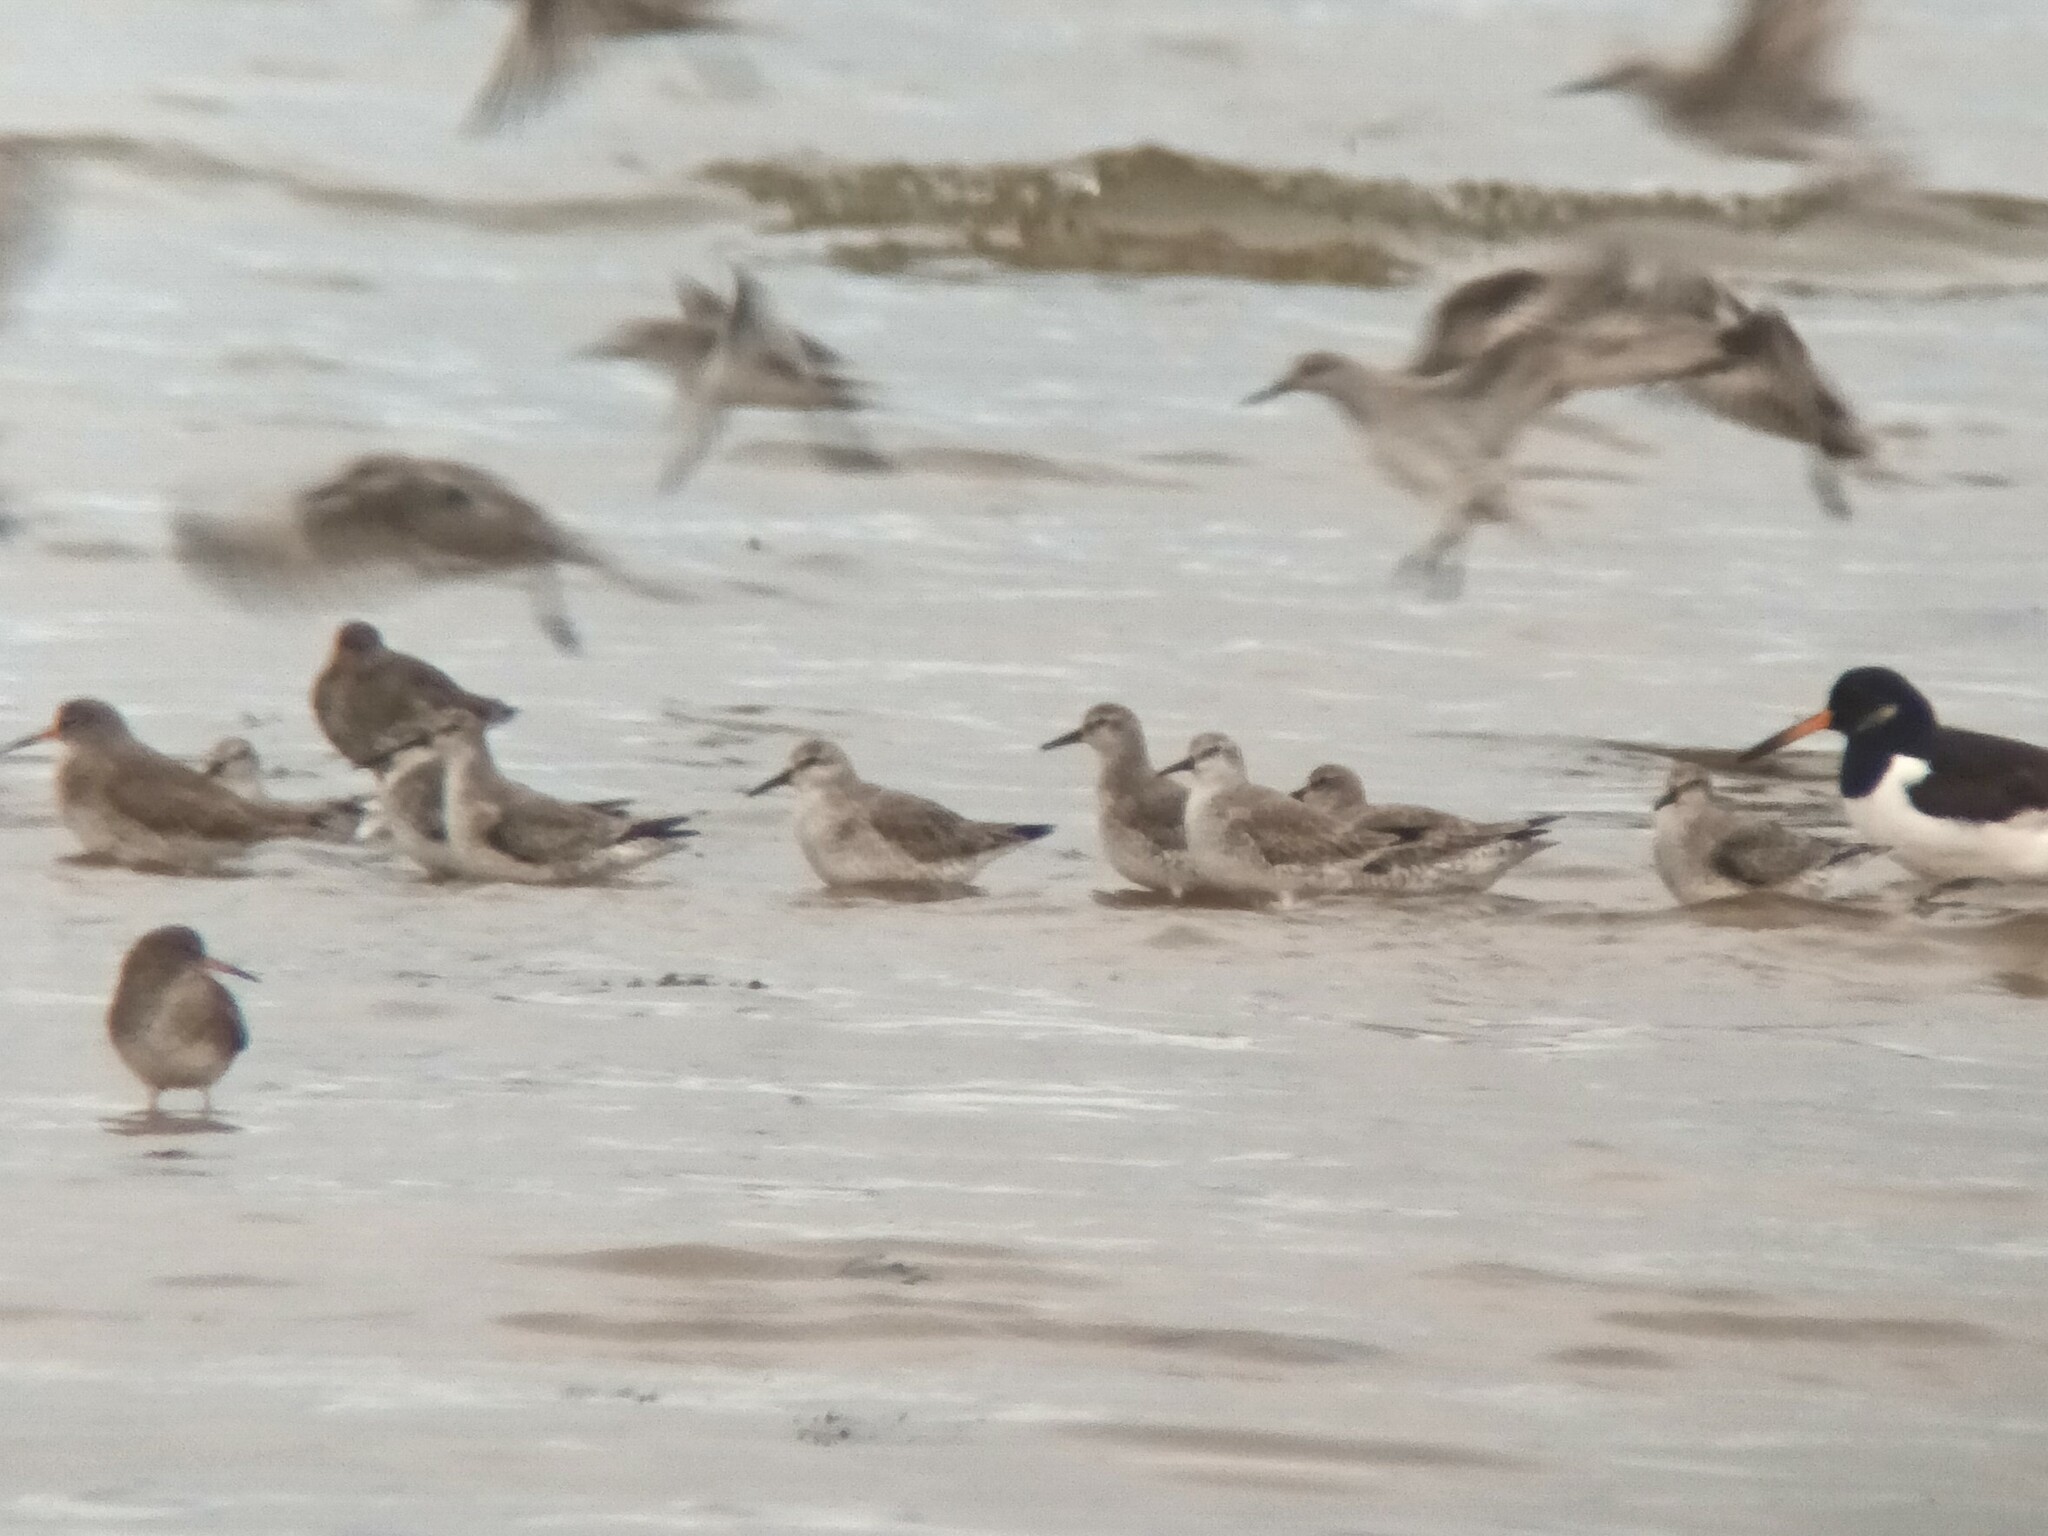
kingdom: Animalia
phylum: Chordata
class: Aves
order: Charadriiformes
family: Scolopacidae
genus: Calidris
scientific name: Calidris canutus
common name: Red knot
